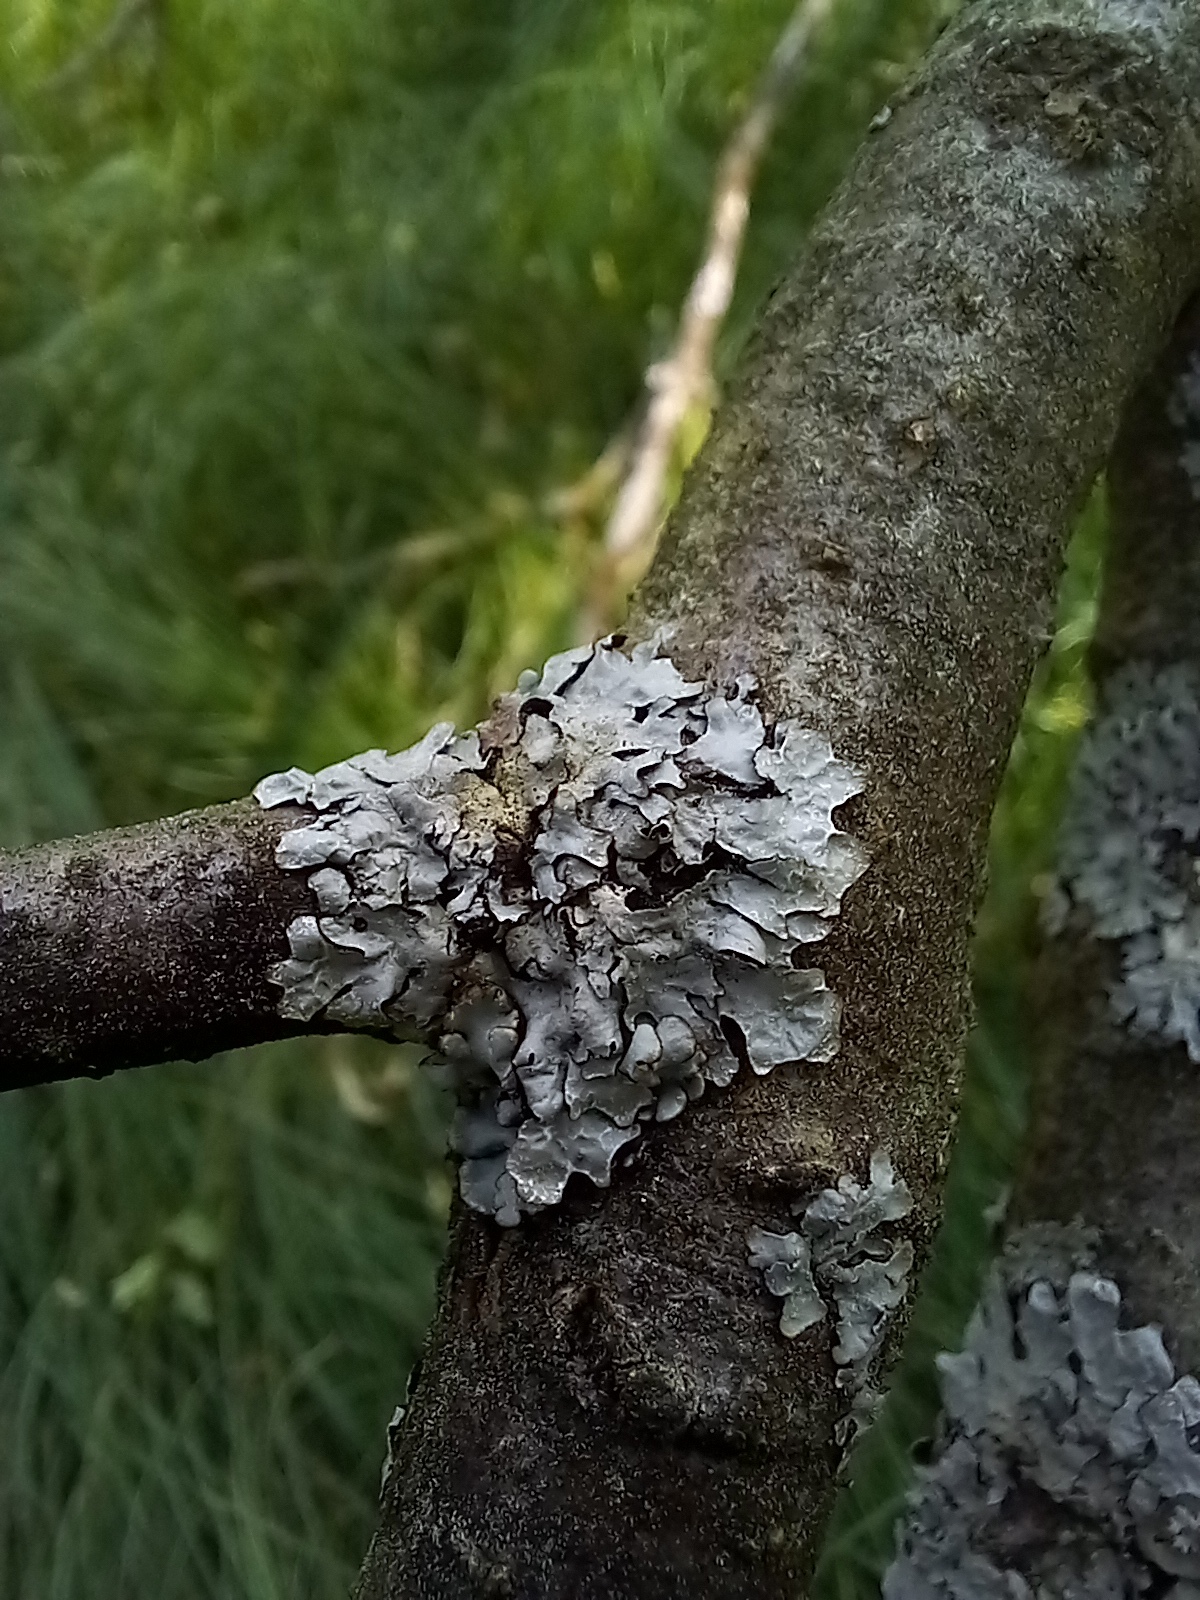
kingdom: Fungi
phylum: Ascomycota
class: Lecanoromycetes
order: Lecanorales
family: Parmeliaceae
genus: Parmelia
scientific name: Parmelia sulcata
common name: Netted shield lichen
